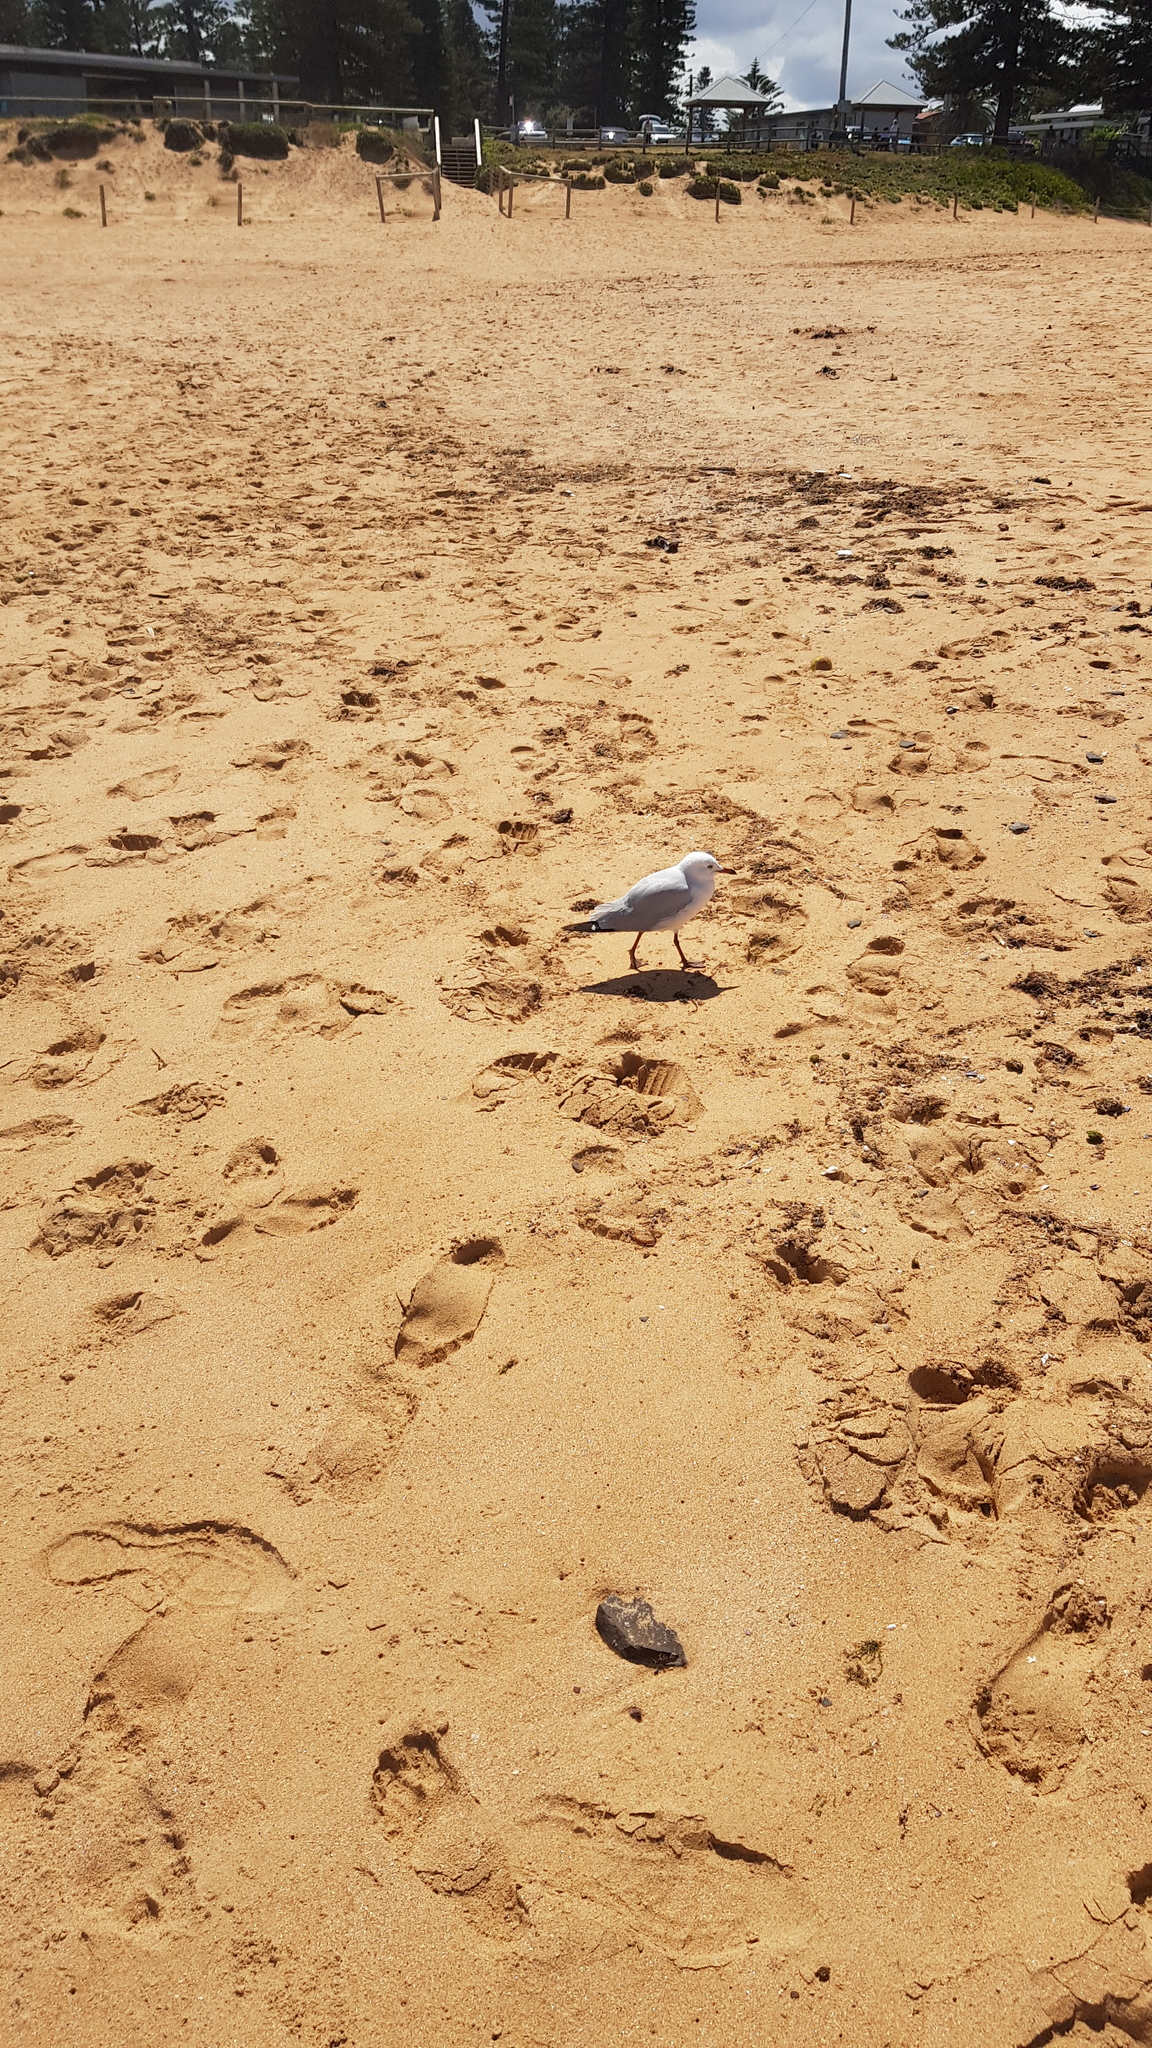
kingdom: Animalia
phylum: Chordata
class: Aves
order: Charadriiformes
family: Laridae
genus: Chroicocephalus
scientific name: Chroicocephalus novaehollandiae
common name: Silver gull
